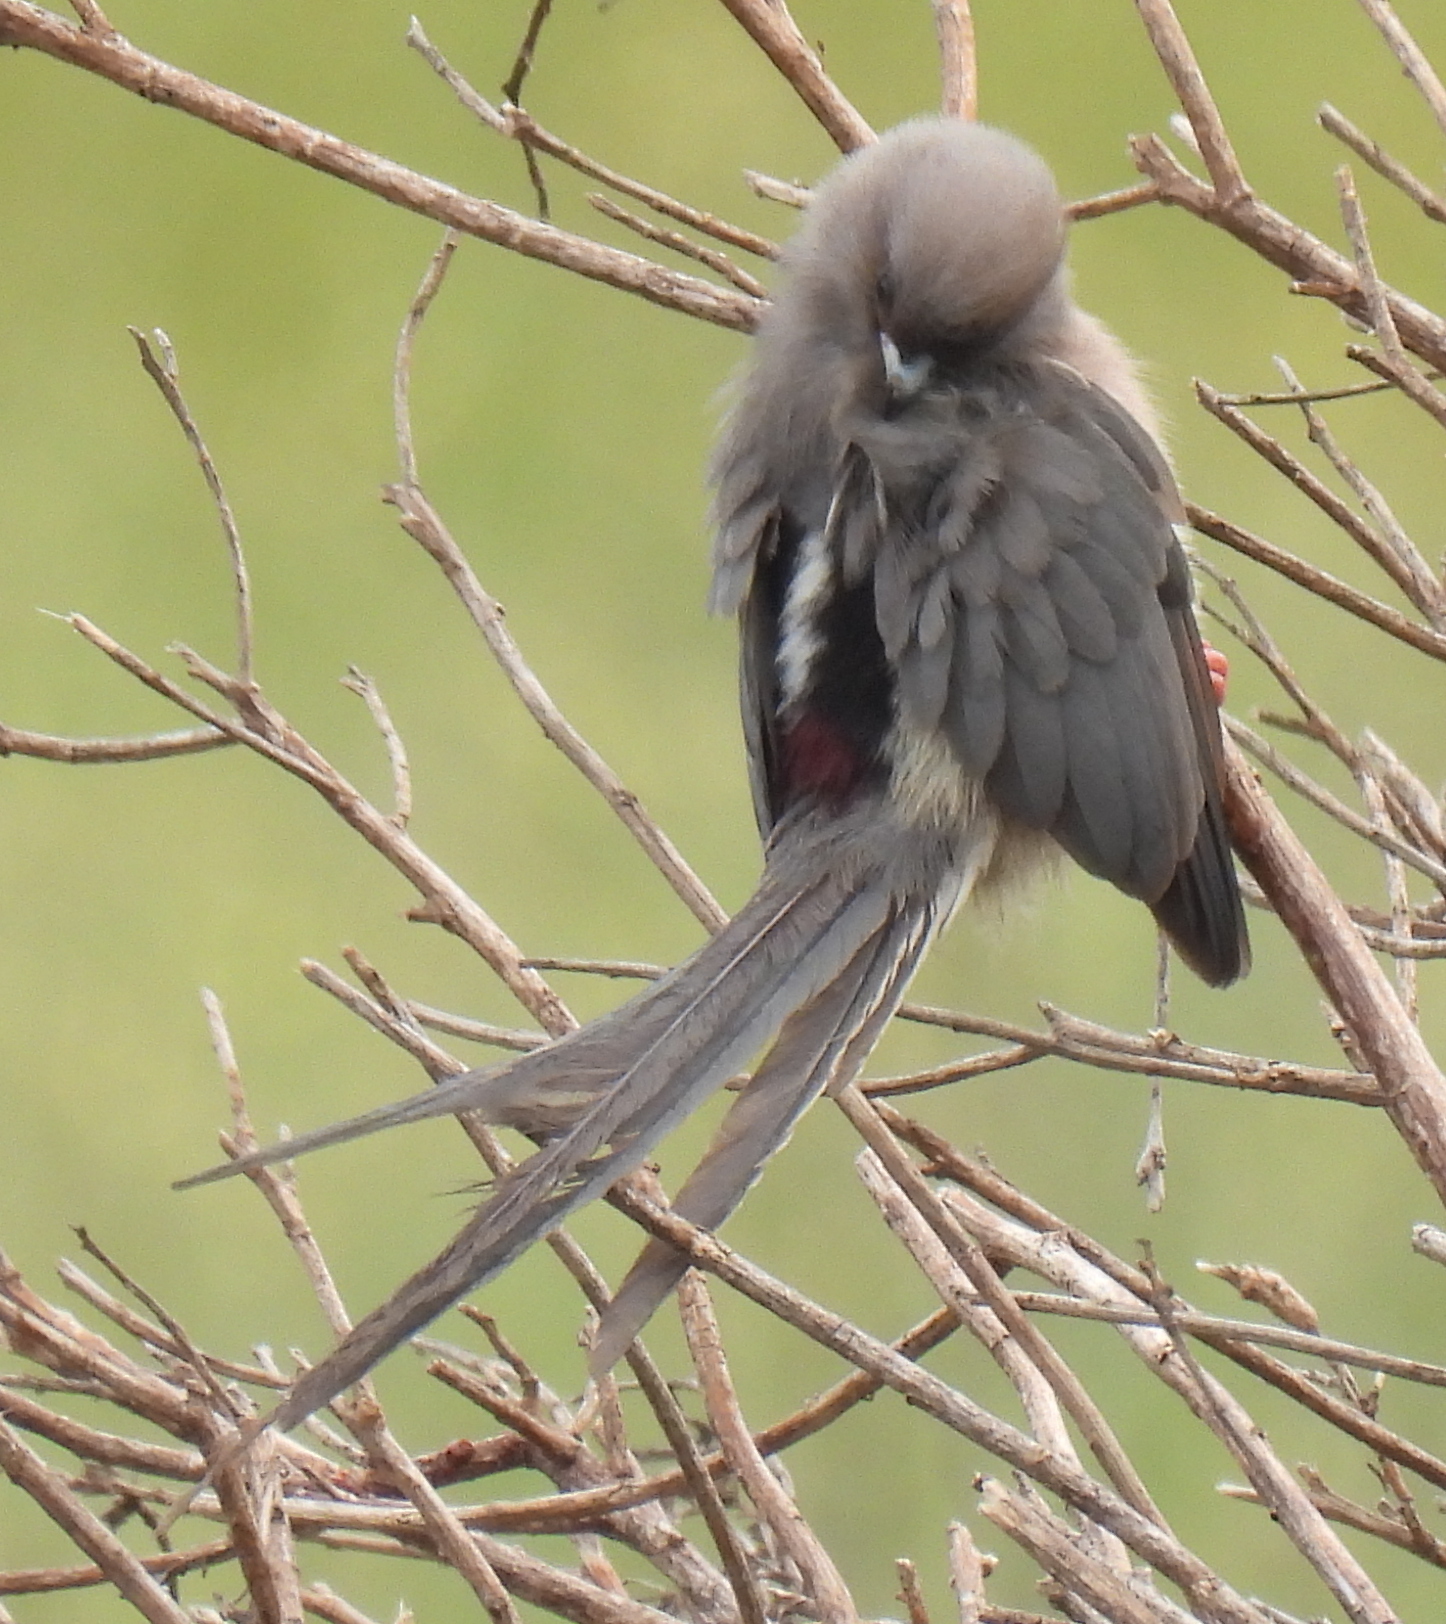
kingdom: Animalia
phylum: Chordata
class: Aves
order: Coliiformes
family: Coliidae
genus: Colius
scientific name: Colius colius
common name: White-backed mousebird
